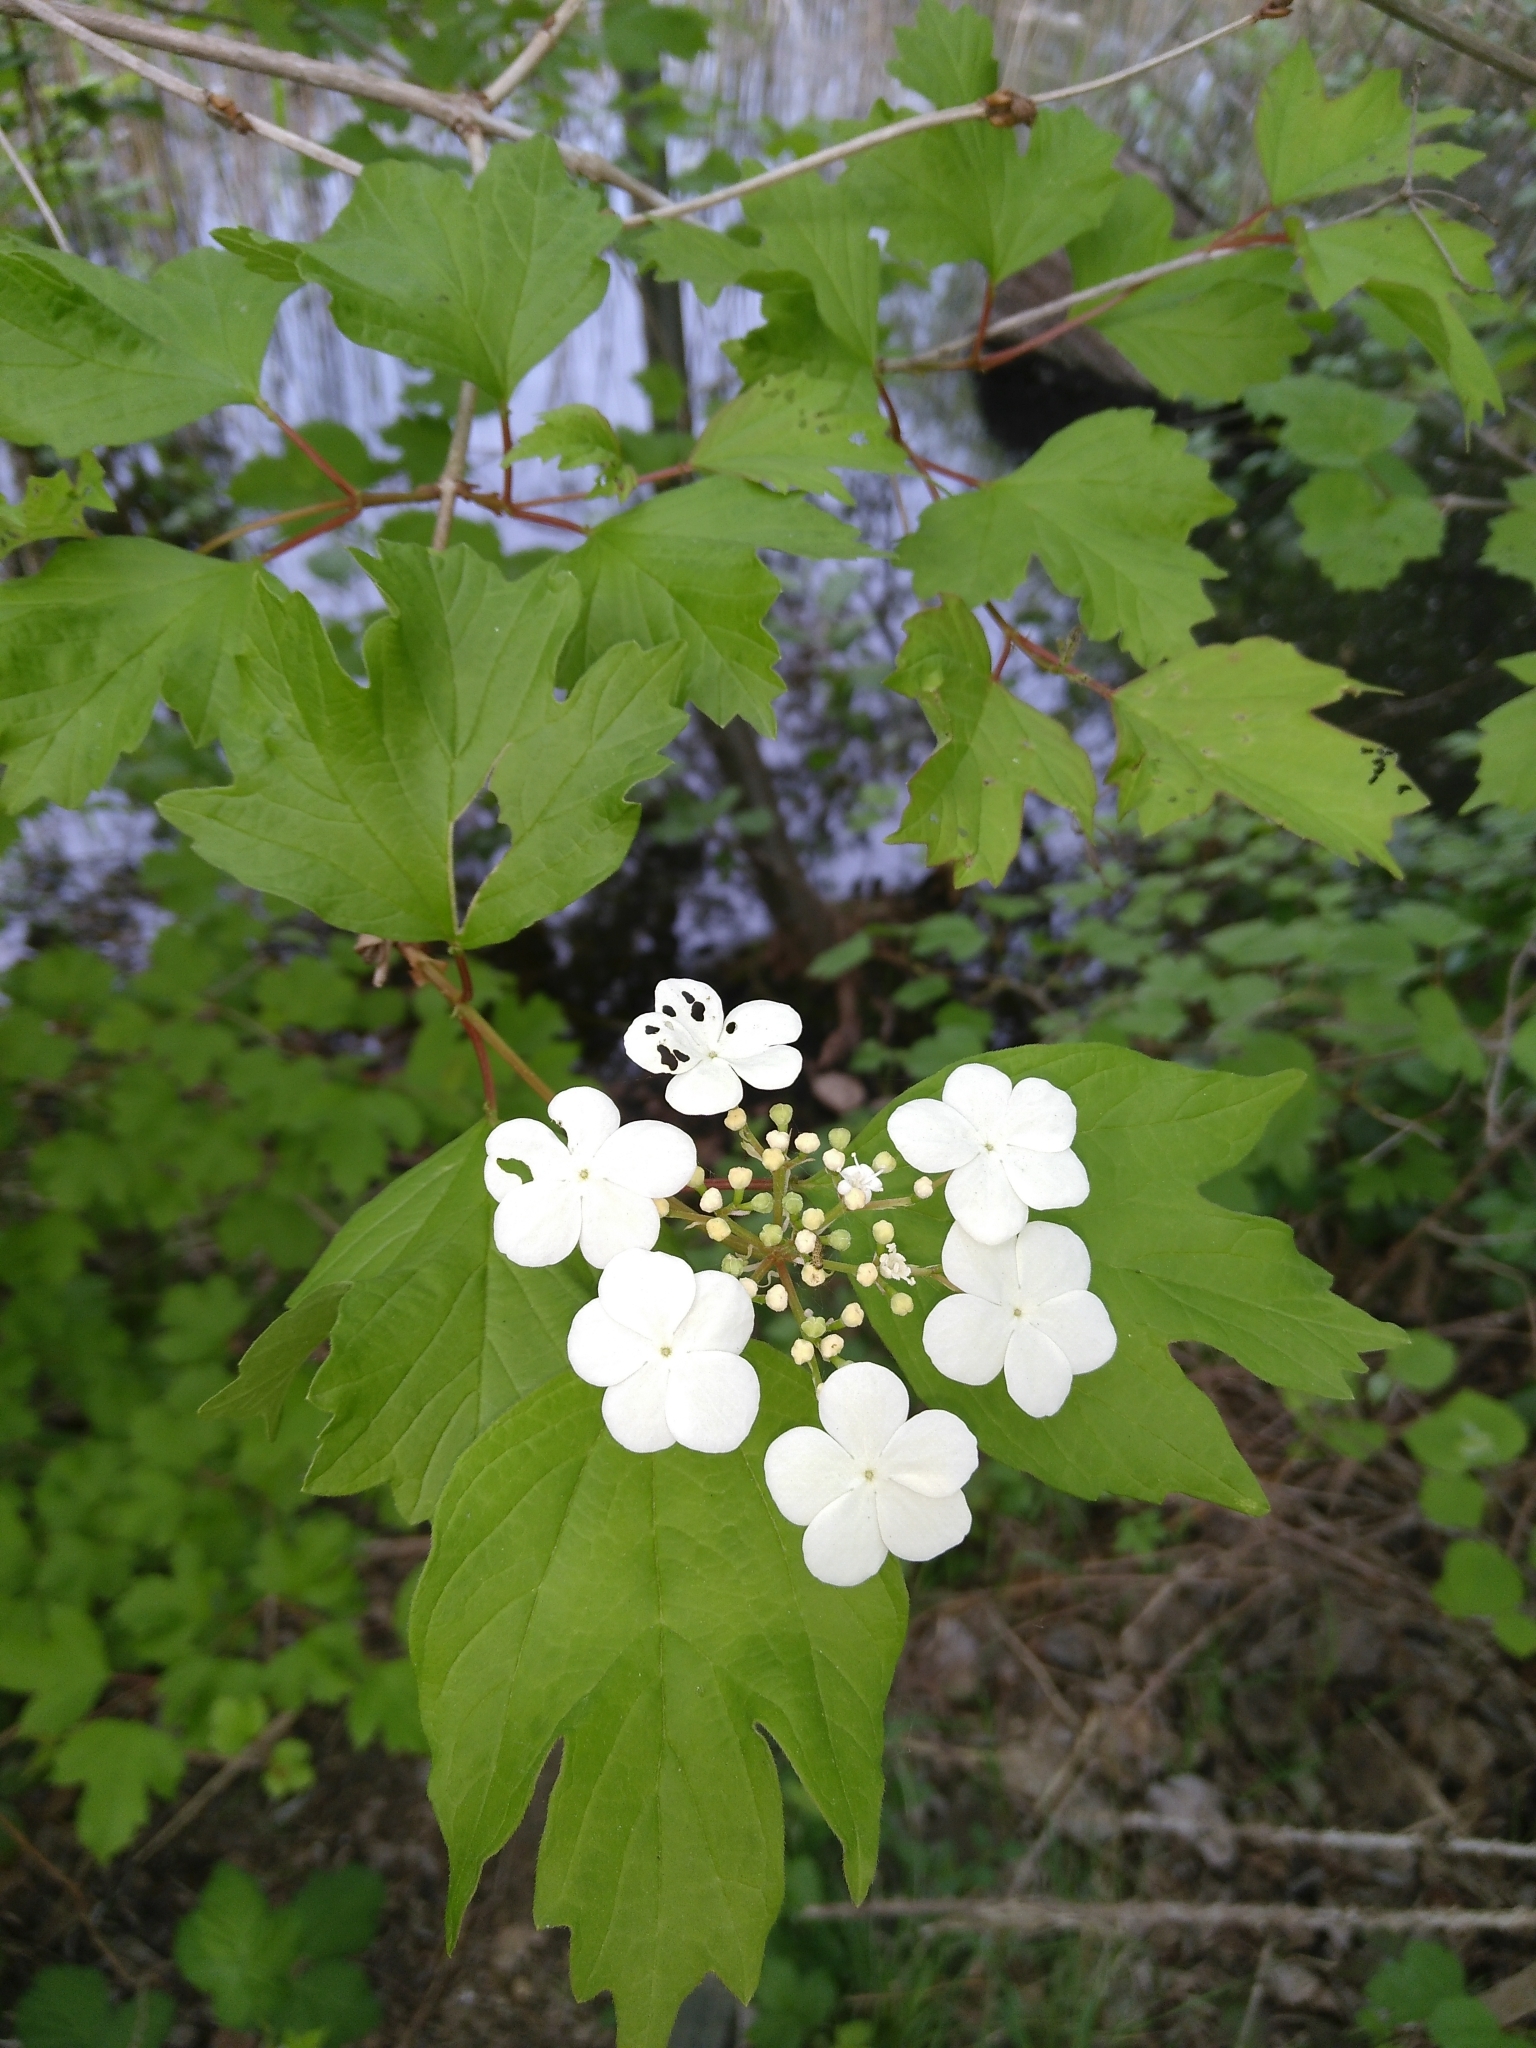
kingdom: Plantae
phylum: Tracheophyta
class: Magnoliopsida
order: Dipsacales
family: Viburnaceae
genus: Viburnum
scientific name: Viburnum opulus
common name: Guelder-rose
